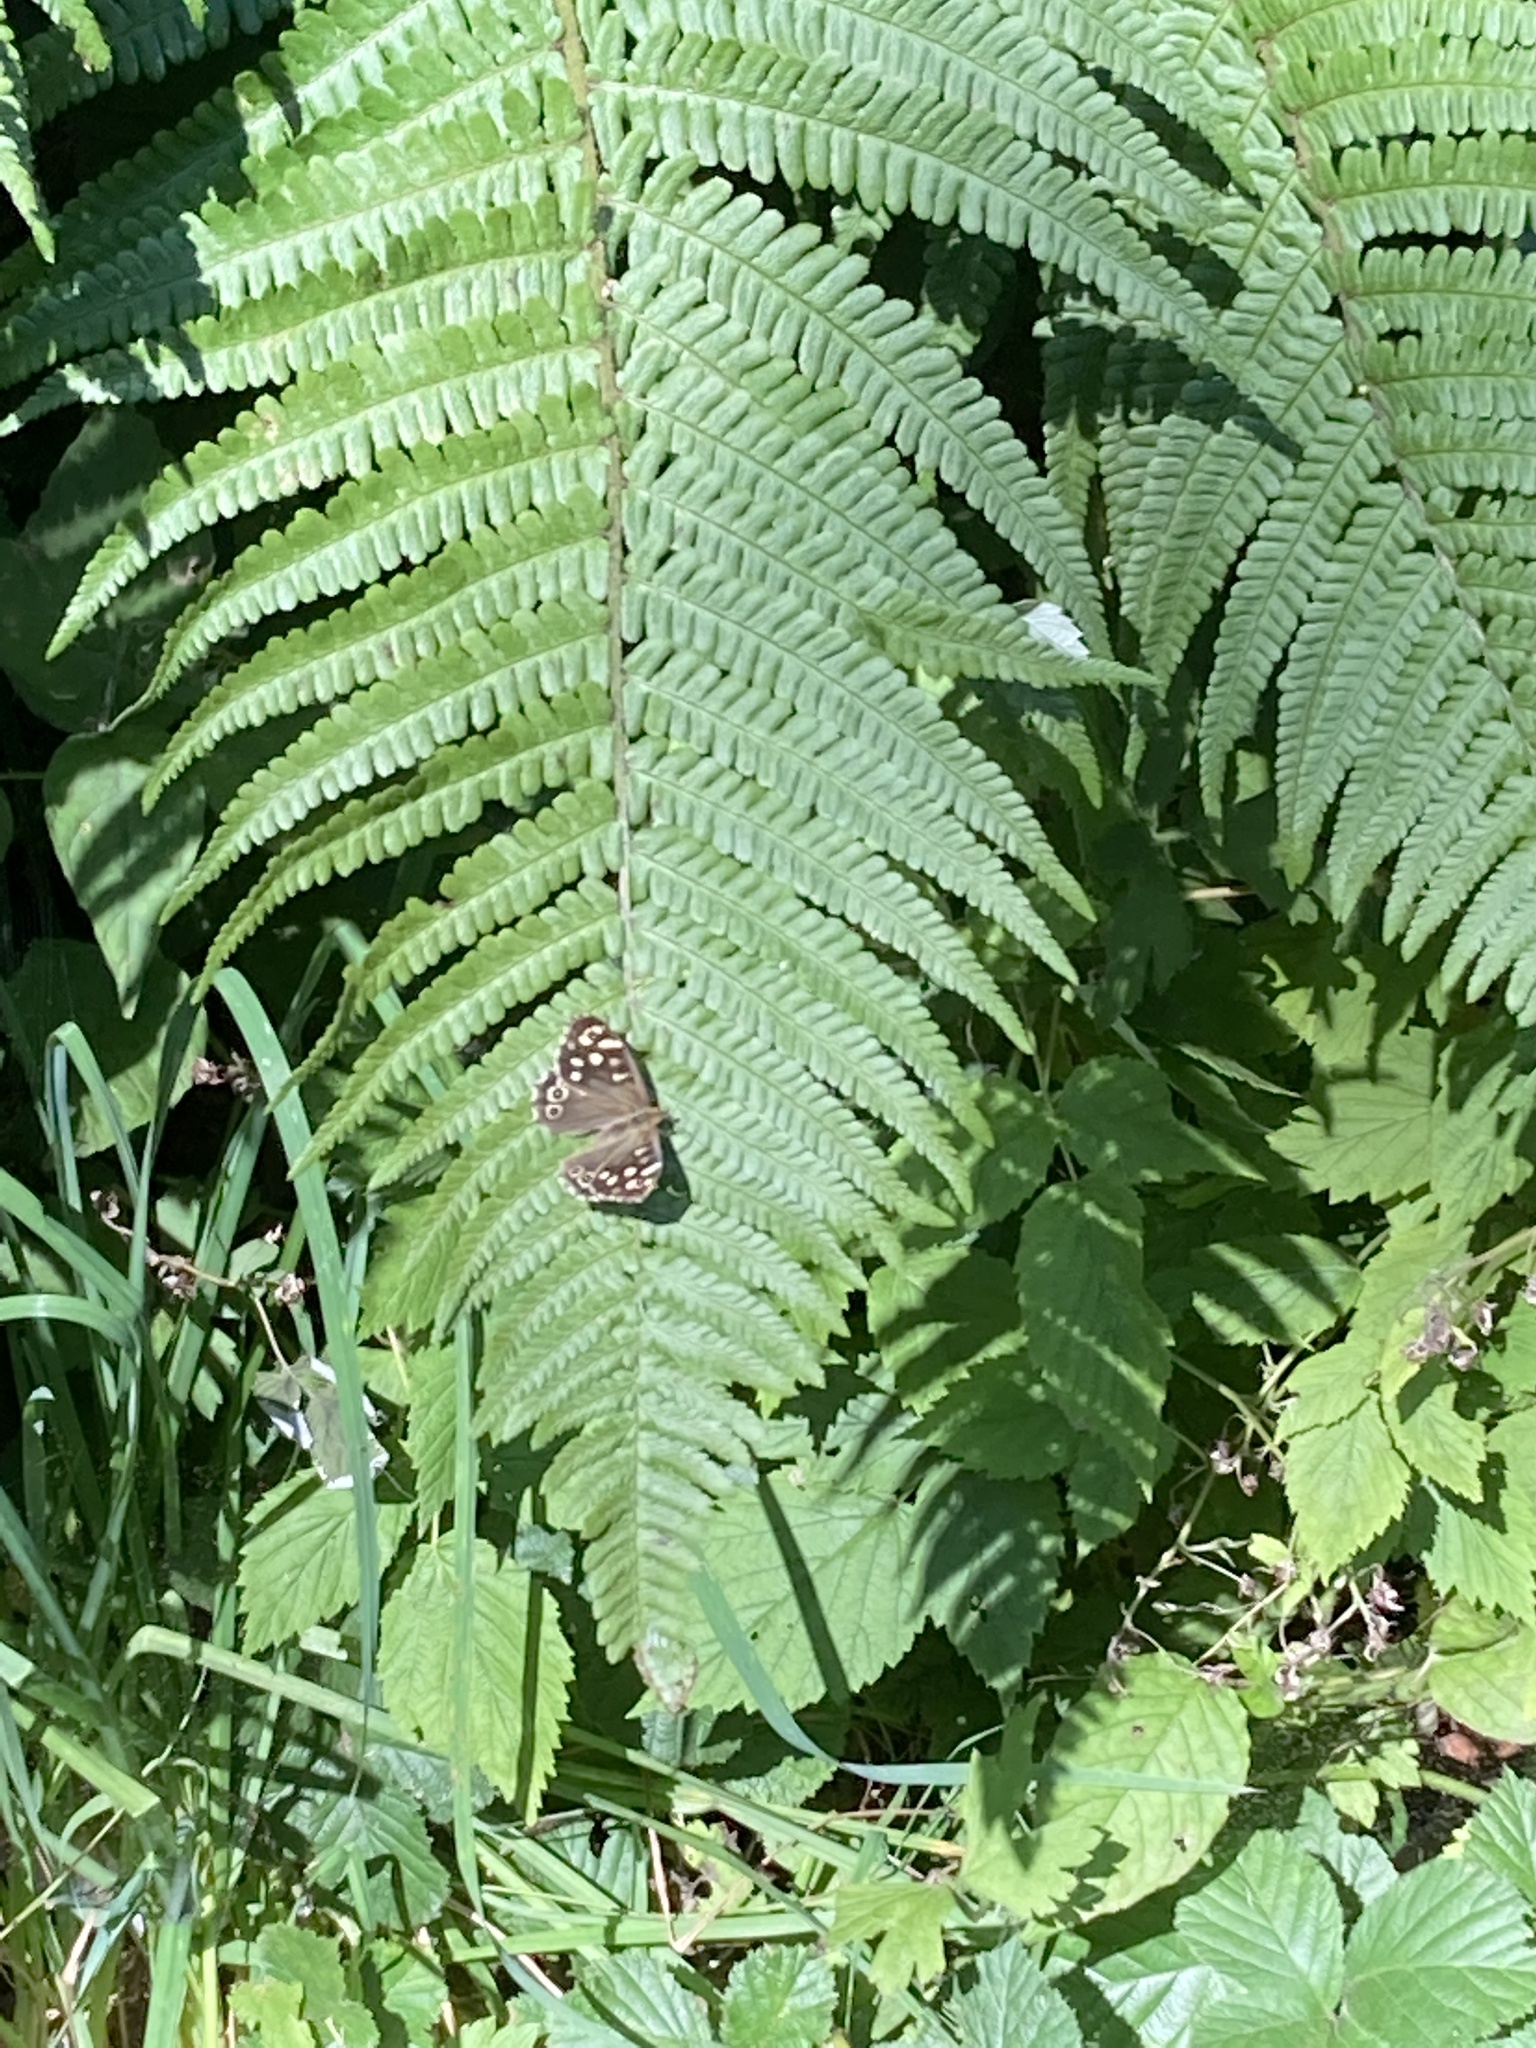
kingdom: Animalia
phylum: Arthropoda
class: Insecta
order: Lepidoptera
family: Nymphalidae
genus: Pararge
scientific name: Pararge aegeria
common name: Speckled wood
